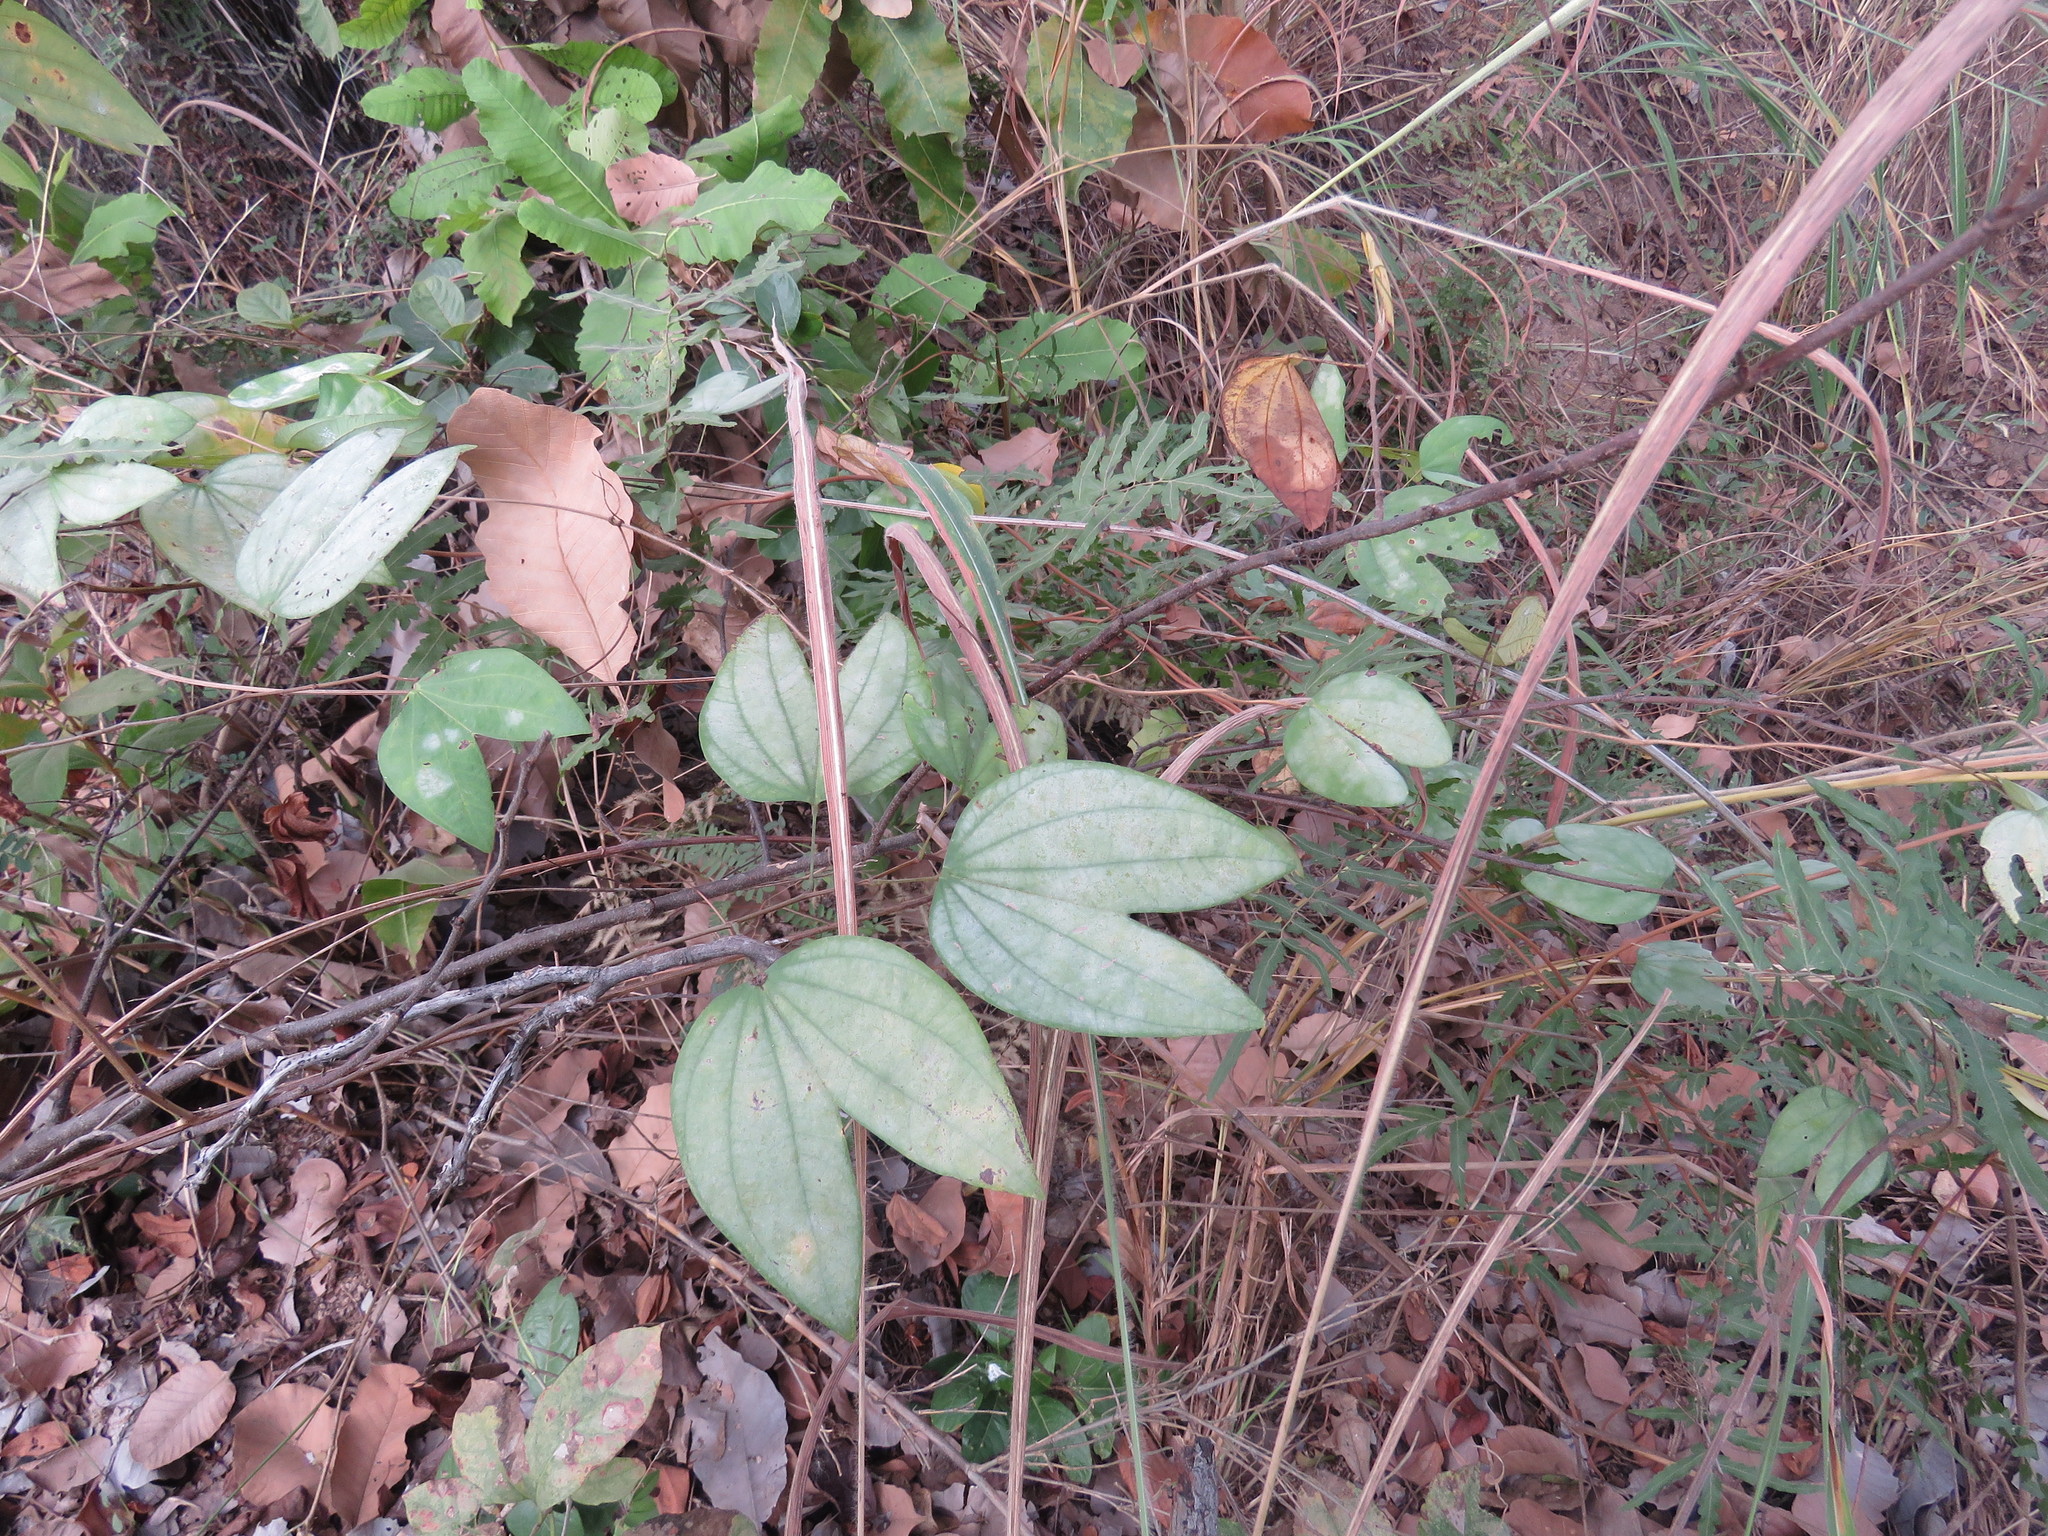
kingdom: Plantae
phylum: Tracheophyta
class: Magnoliopsida
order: Fabales
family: Fabaceae
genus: Bauhinia
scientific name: Bauhinia divaricata
